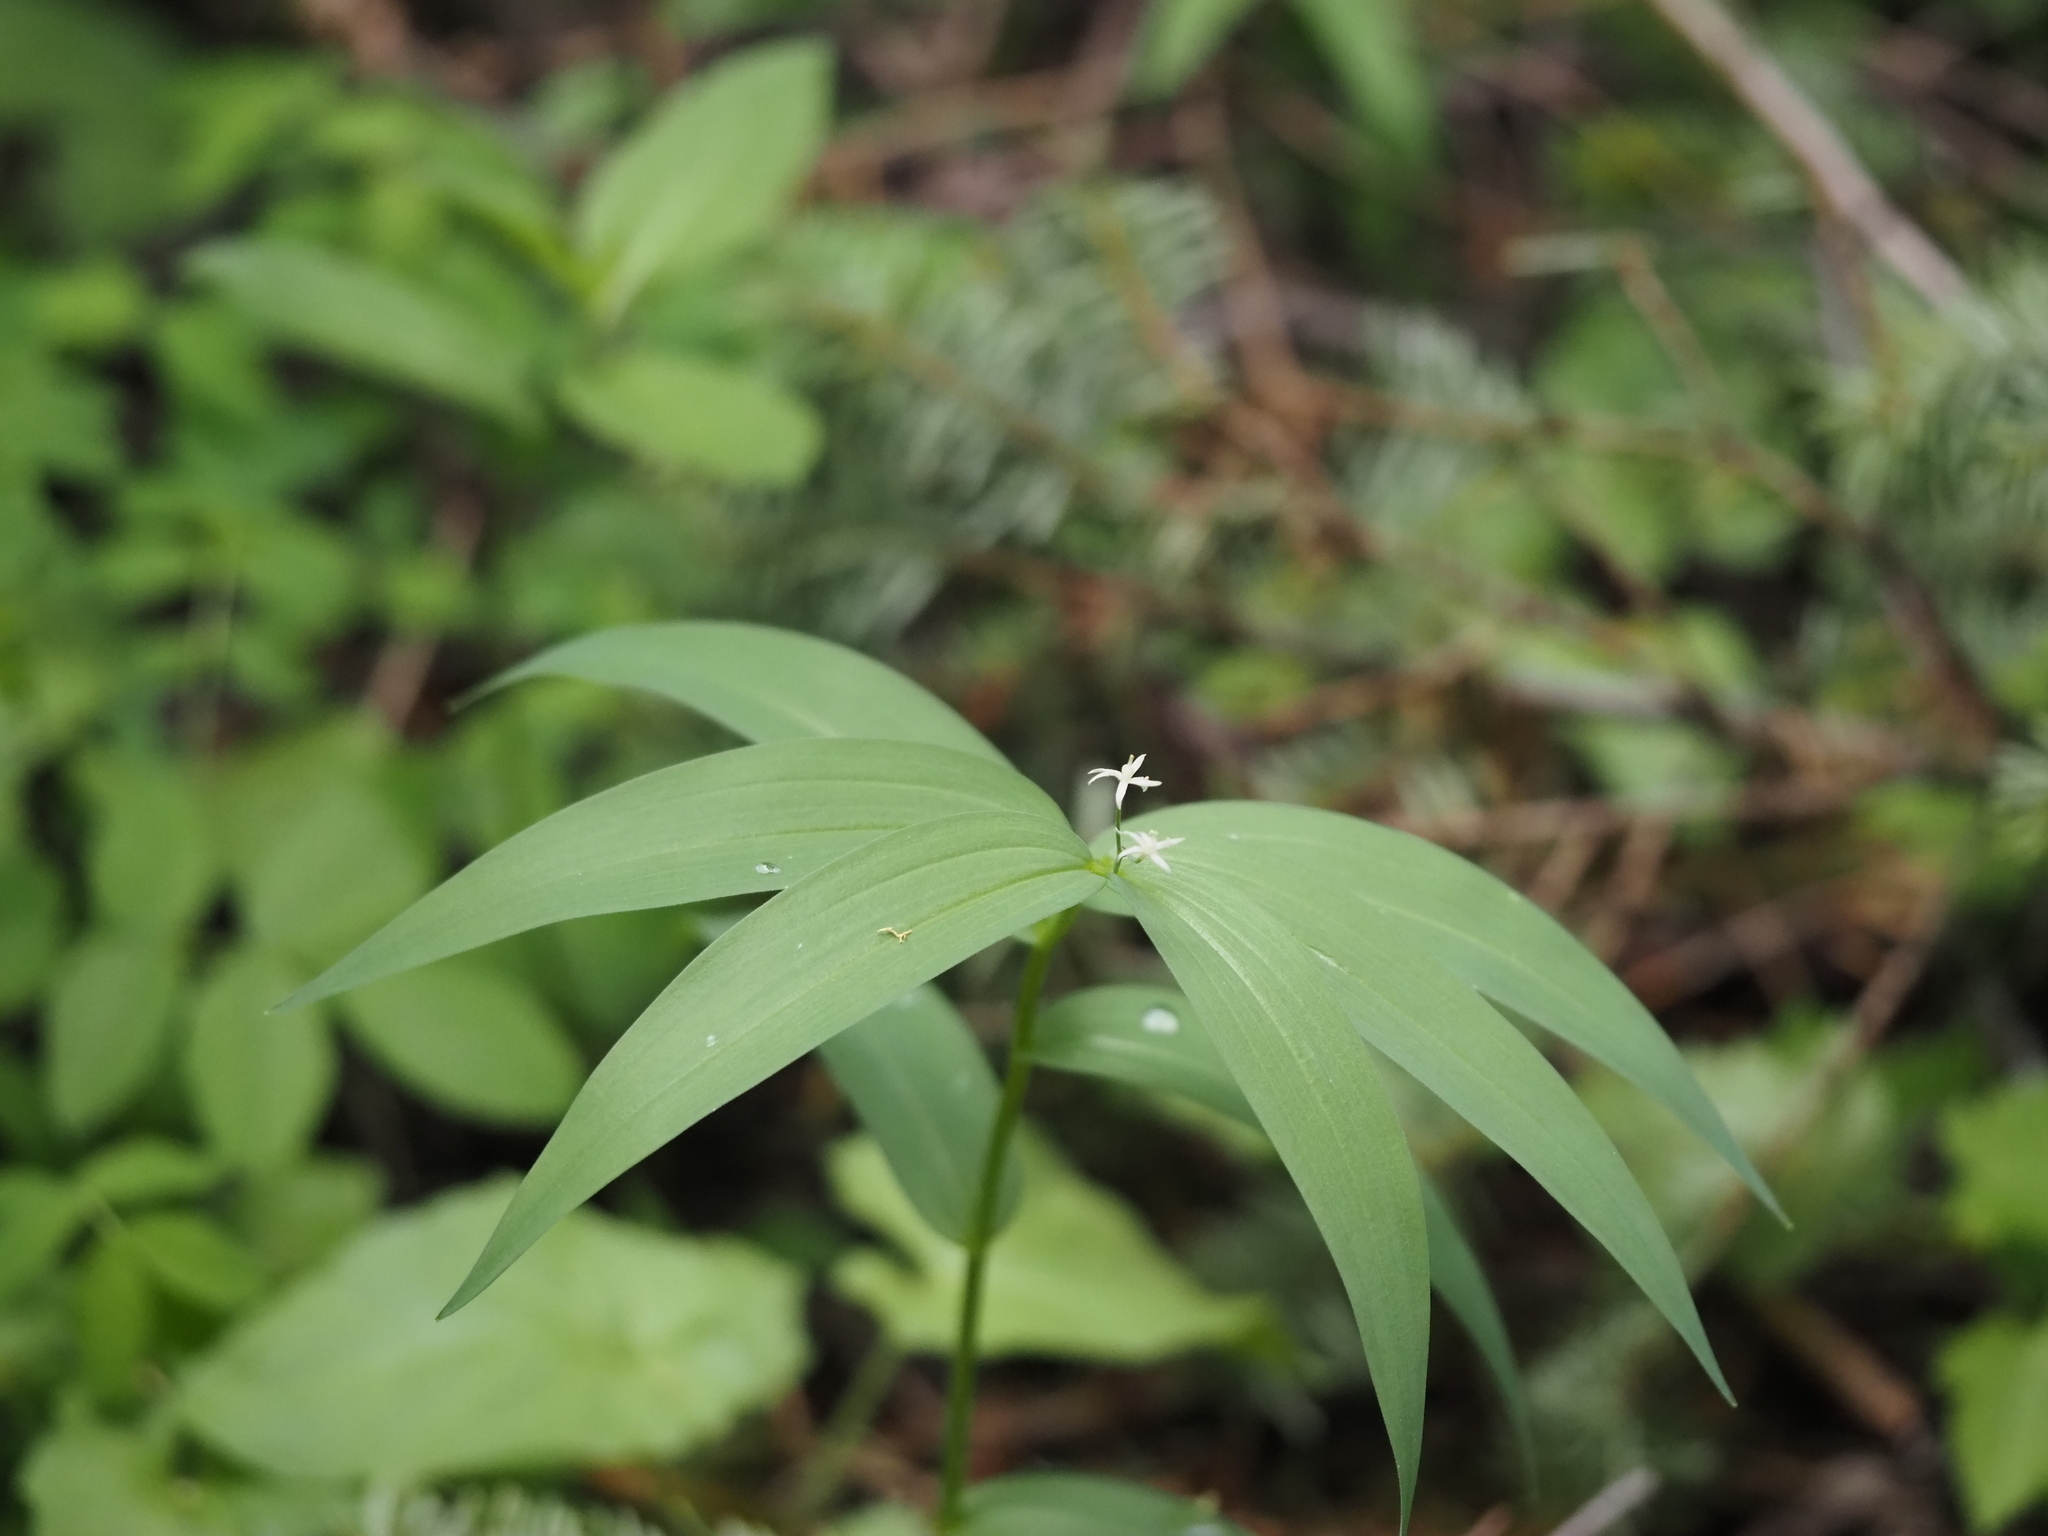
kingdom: Plantae
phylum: Tracheophyta
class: Liliopsida
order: Asparagales
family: Asparagaceae
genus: Maianthemum
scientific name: Maianthemum stellatum
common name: Little false solomon's seal
